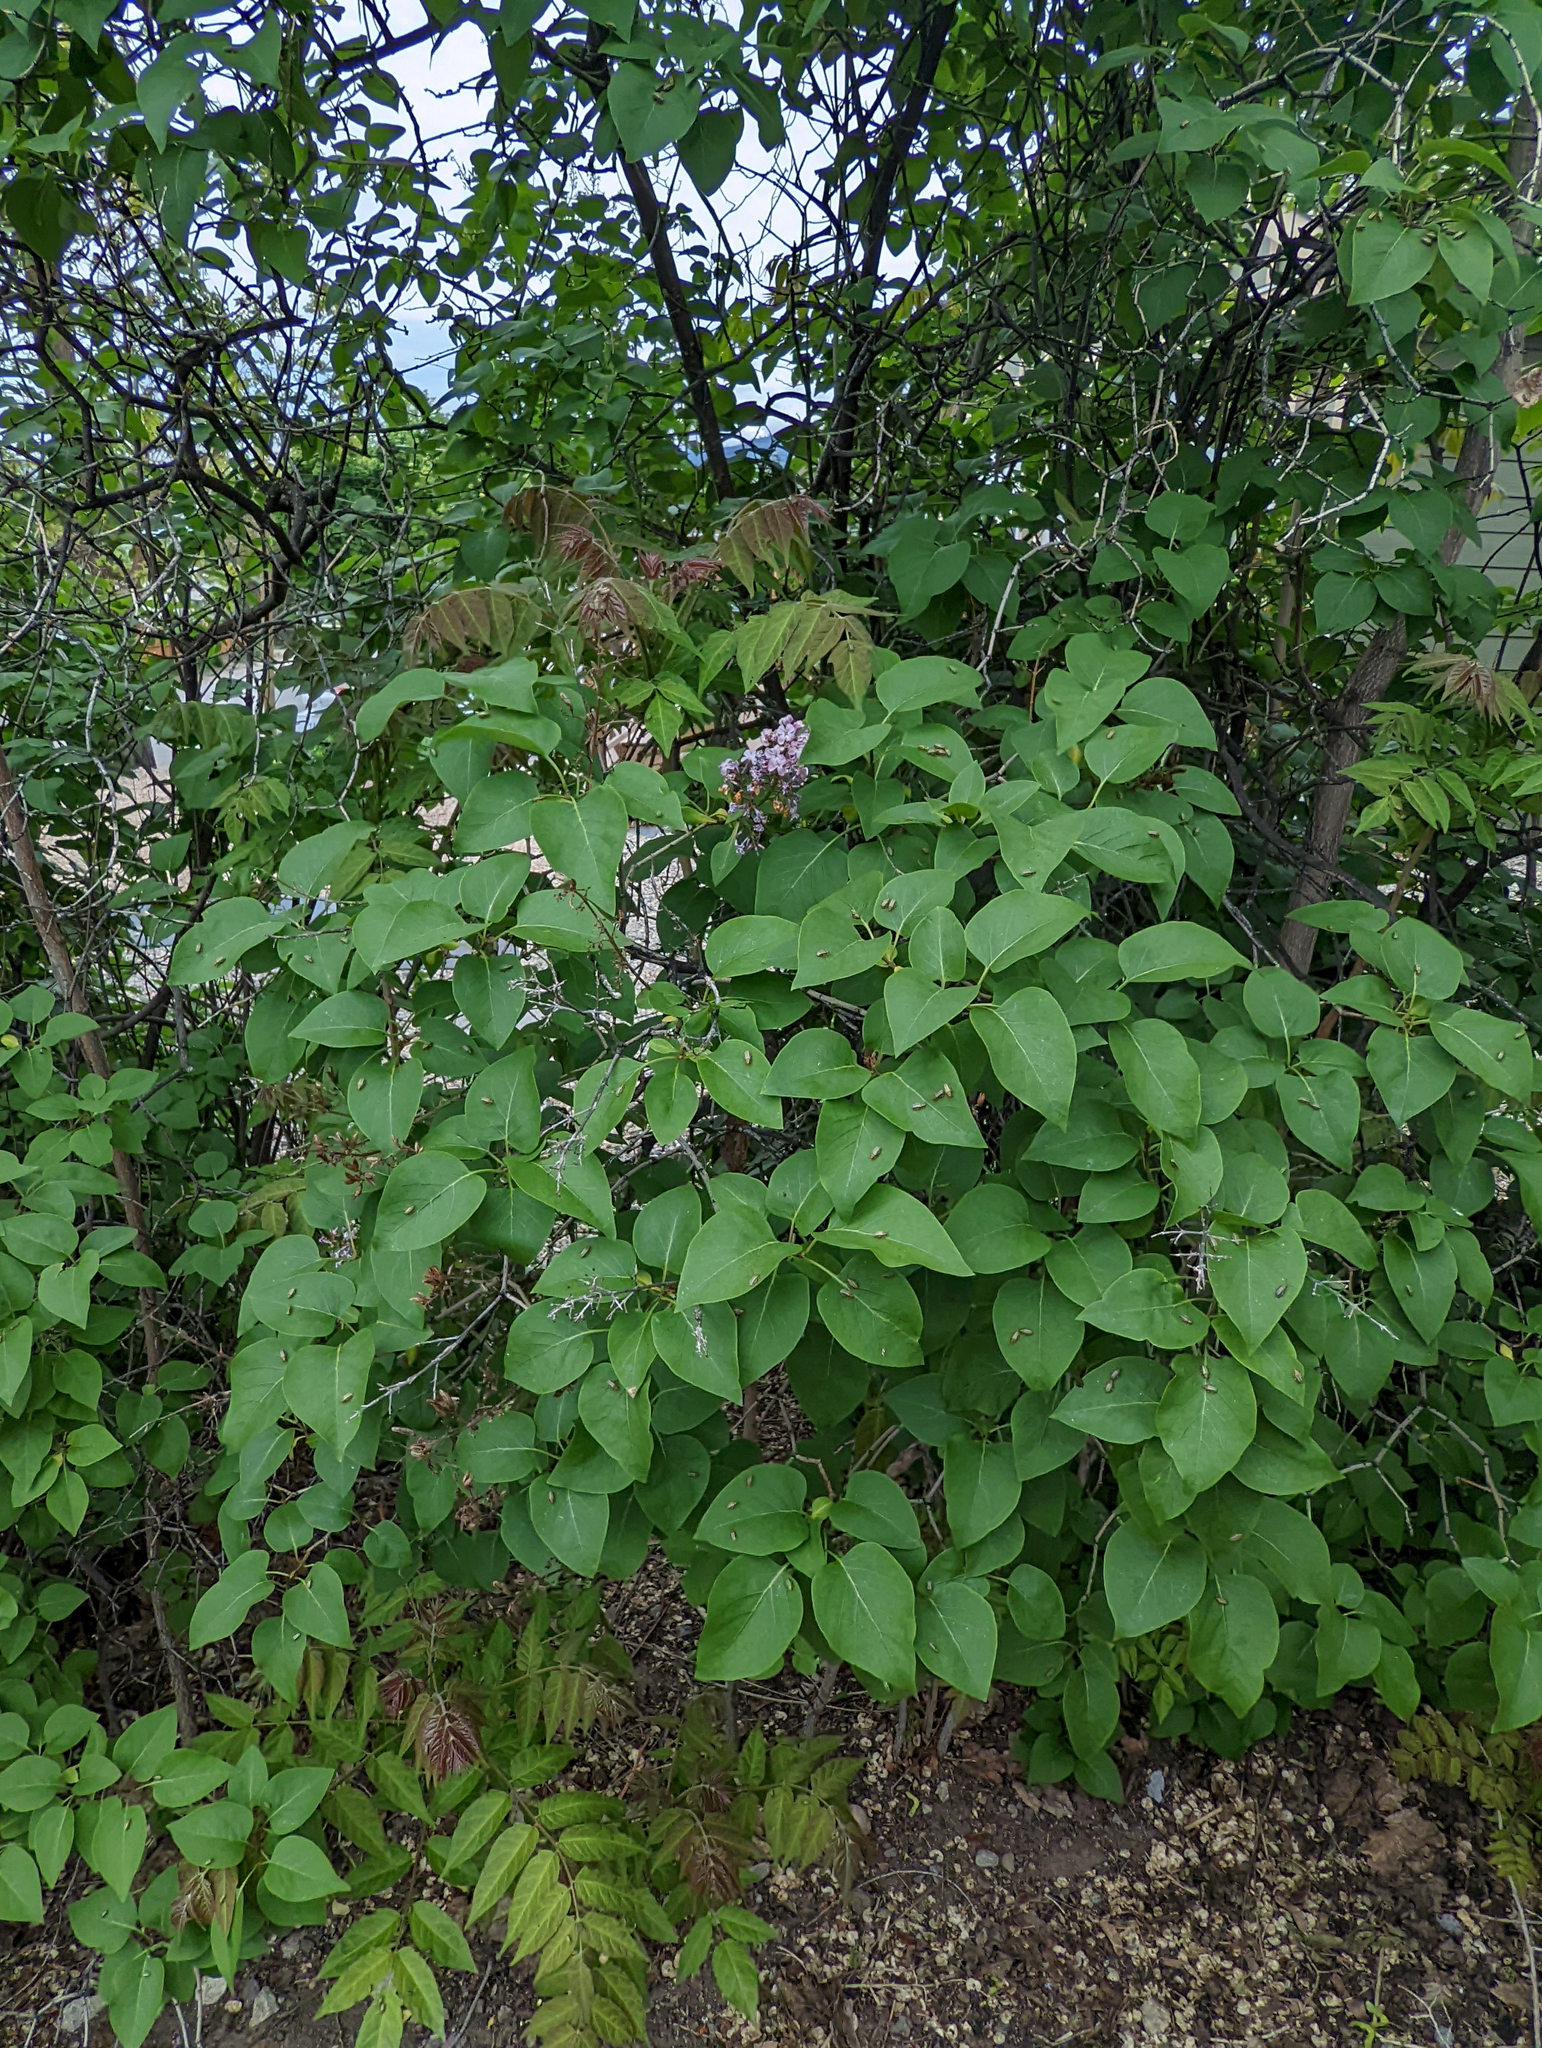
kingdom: Plantae
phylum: Tracheophyta
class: Magnoliopsida
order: Lamiales
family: Oleaceae
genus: Syringa
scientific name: Syringa vulgaris
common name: Common lilac
